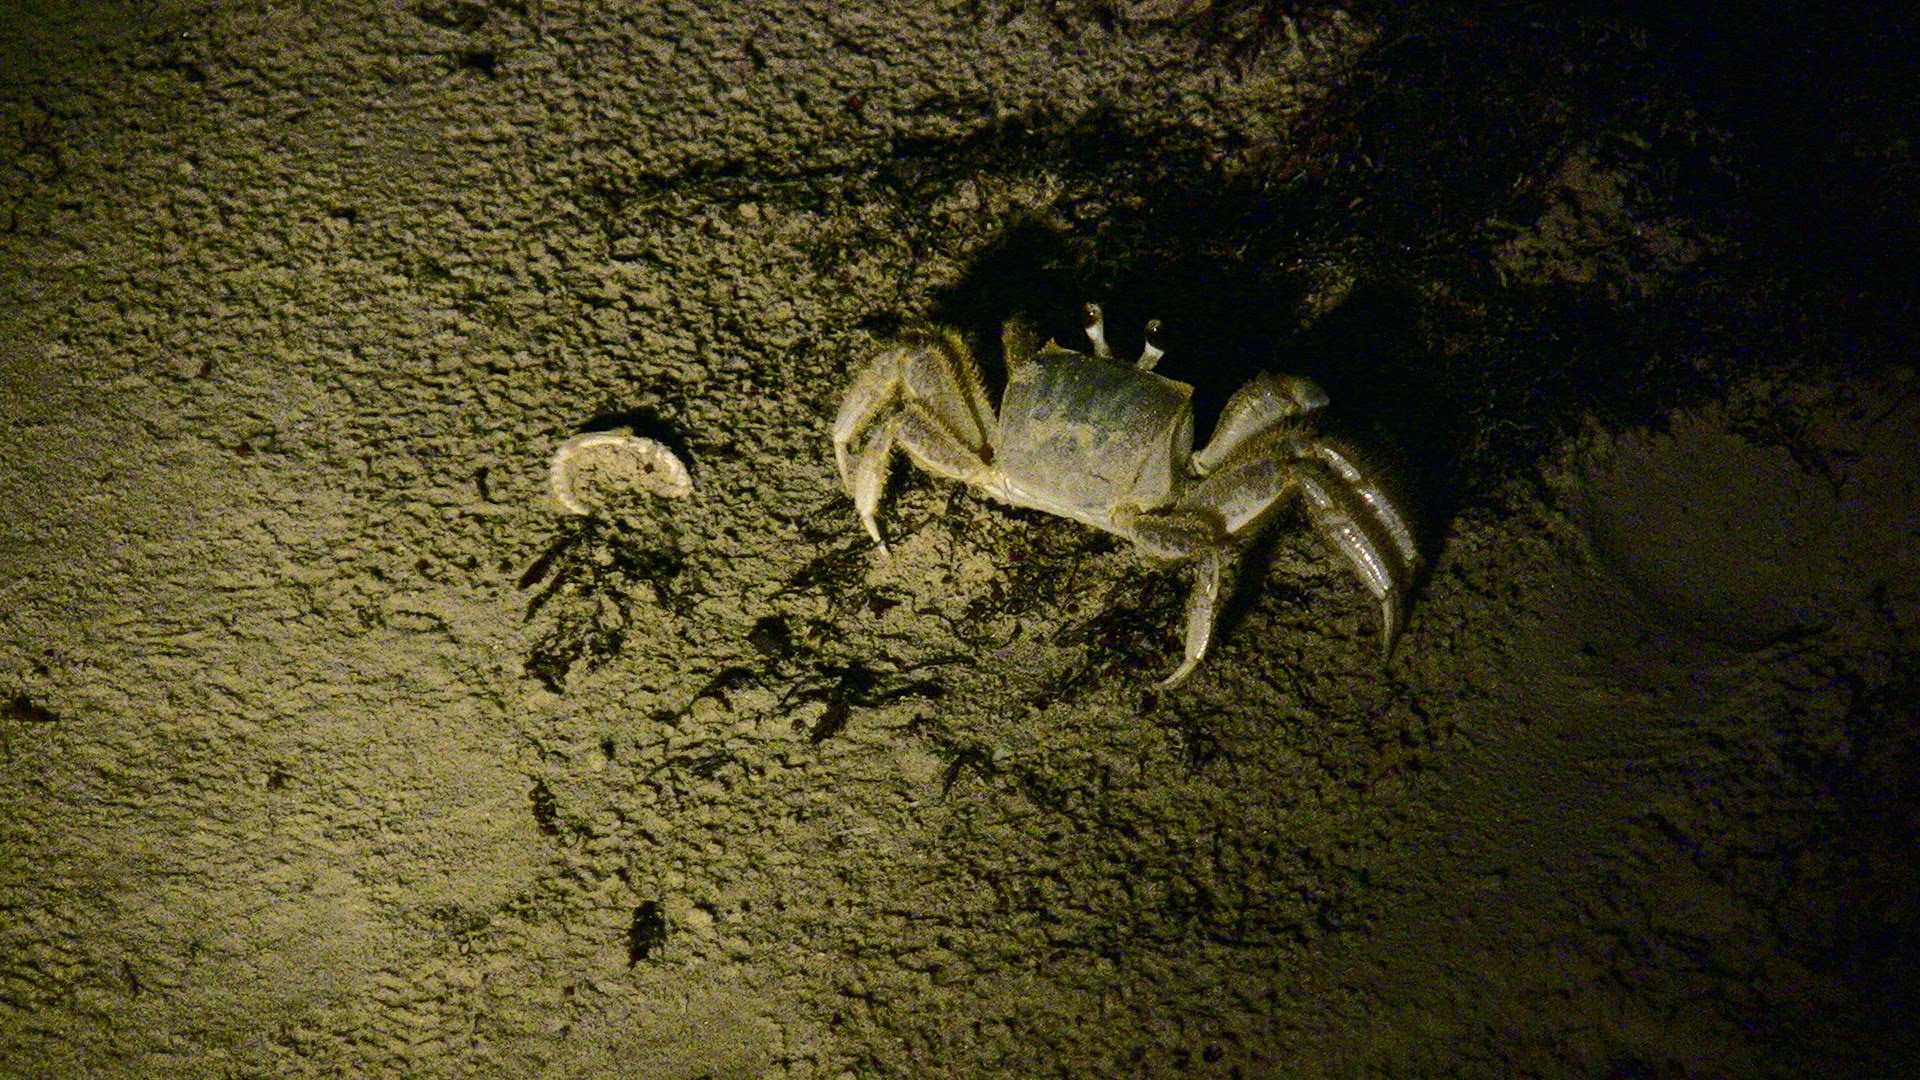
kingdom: Animalia
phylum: Arthropoda
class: Malacostraca
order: Decapoda
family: Ocypodidae
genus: Ocypode
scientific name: Ocypode quadrata
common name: Ghost crab
